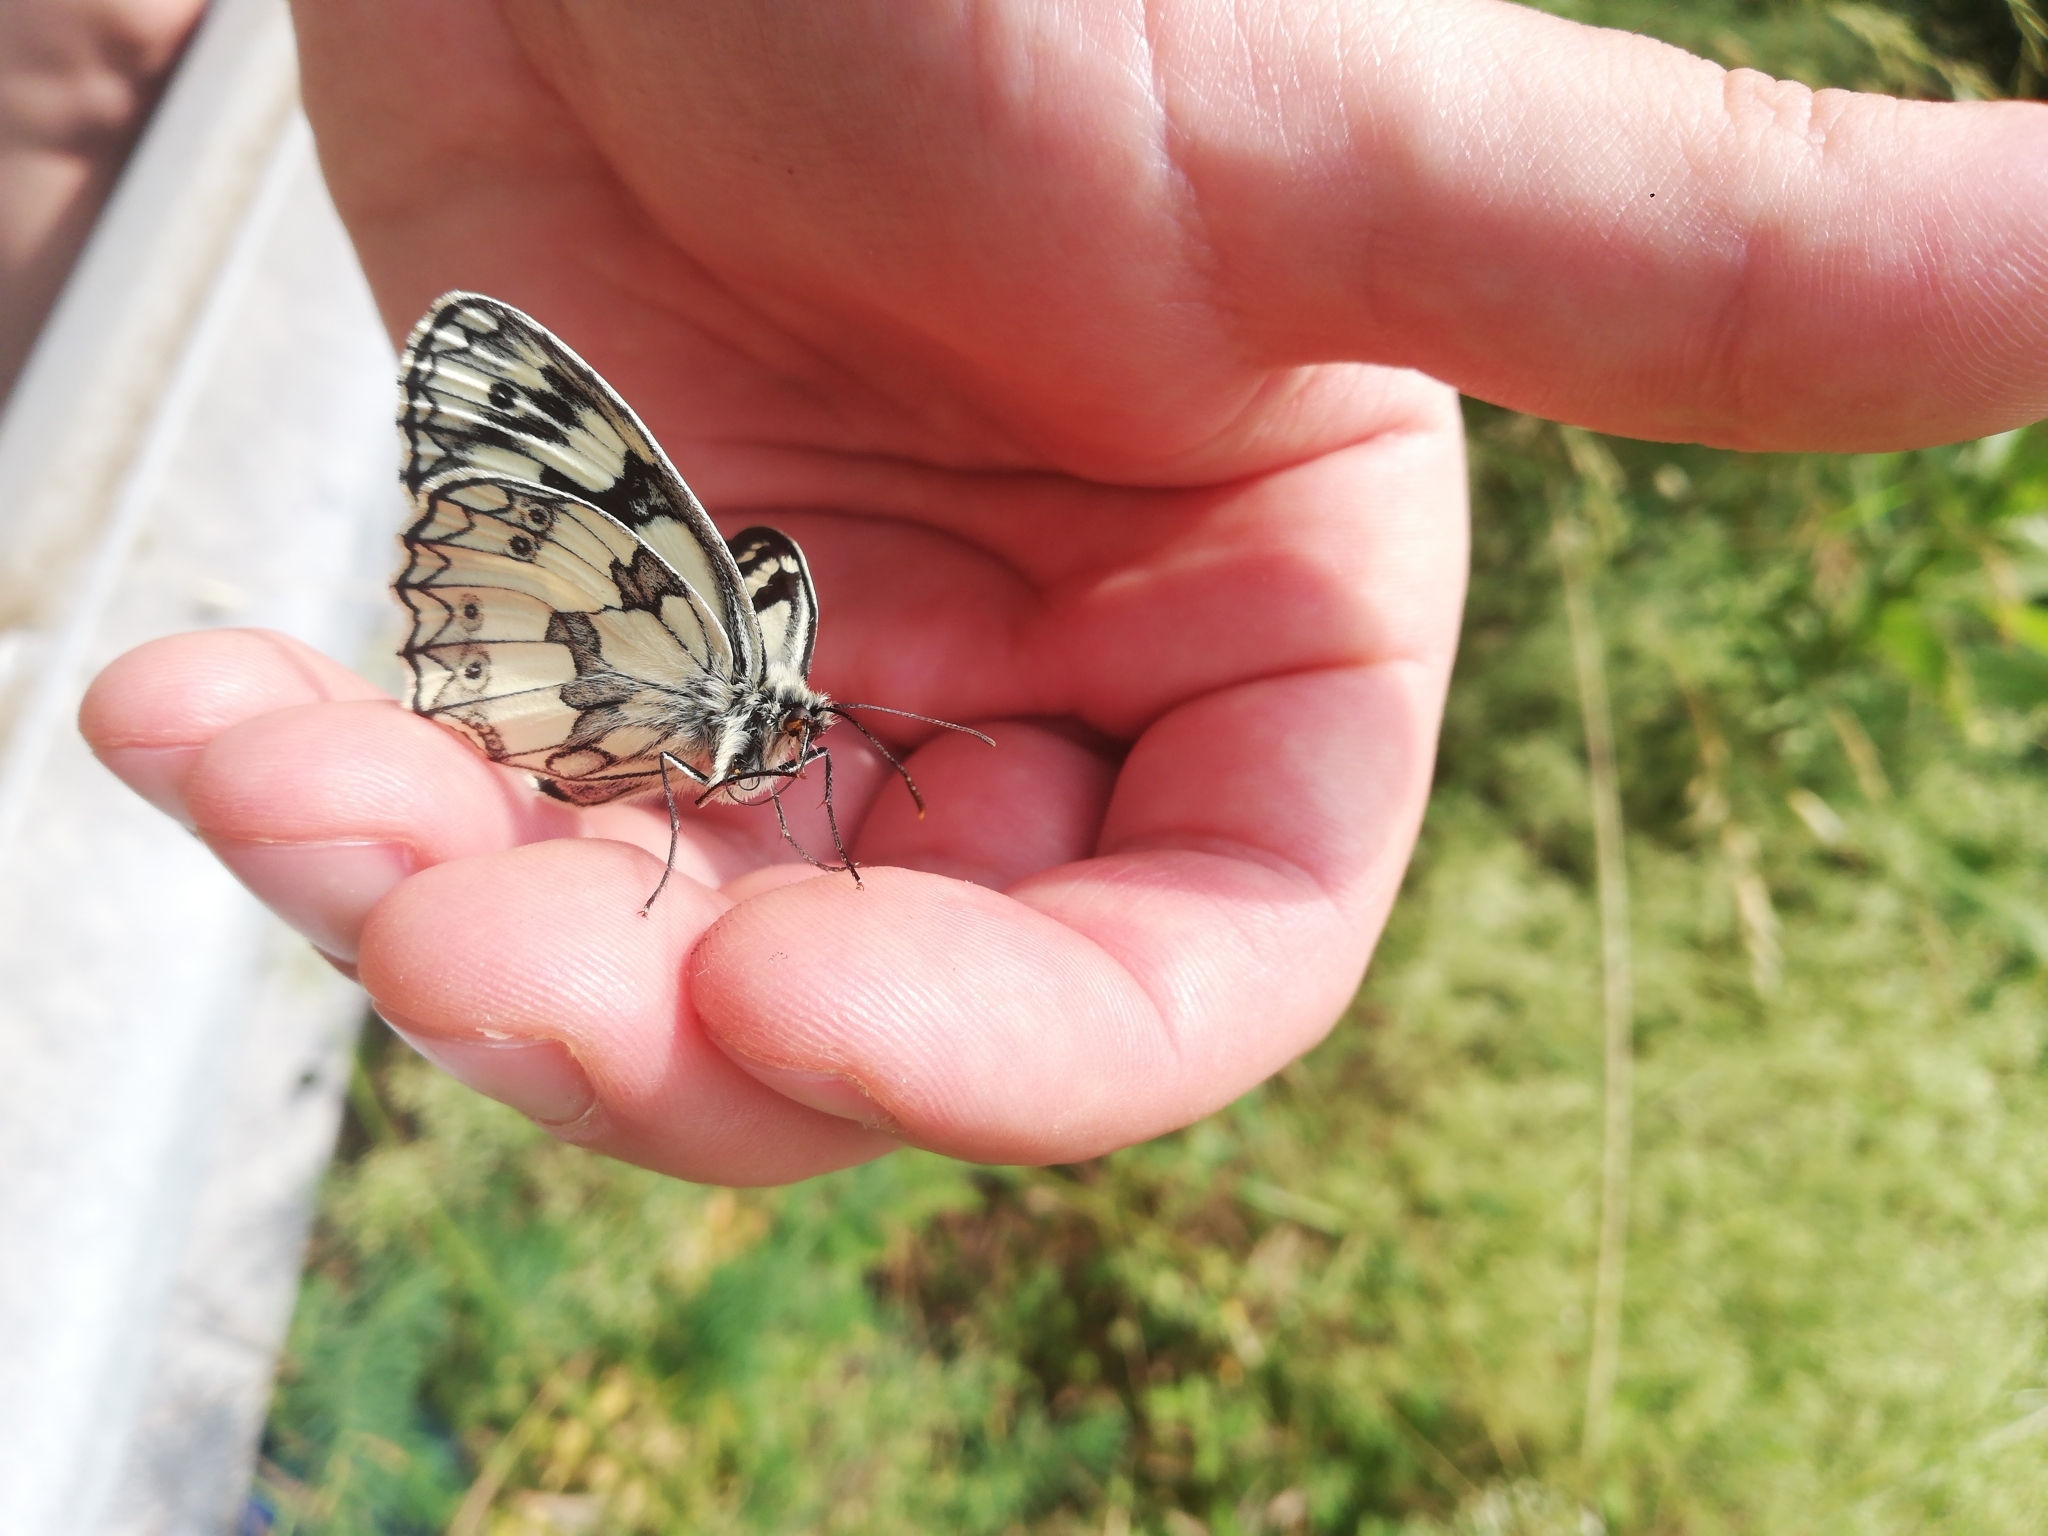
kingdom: Animalia
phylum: Arthropoda
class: Insecta
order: Lepidoptera
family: Nymphalidae
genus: Melanargia
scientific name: Melanargia galathea
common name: Marbled white
